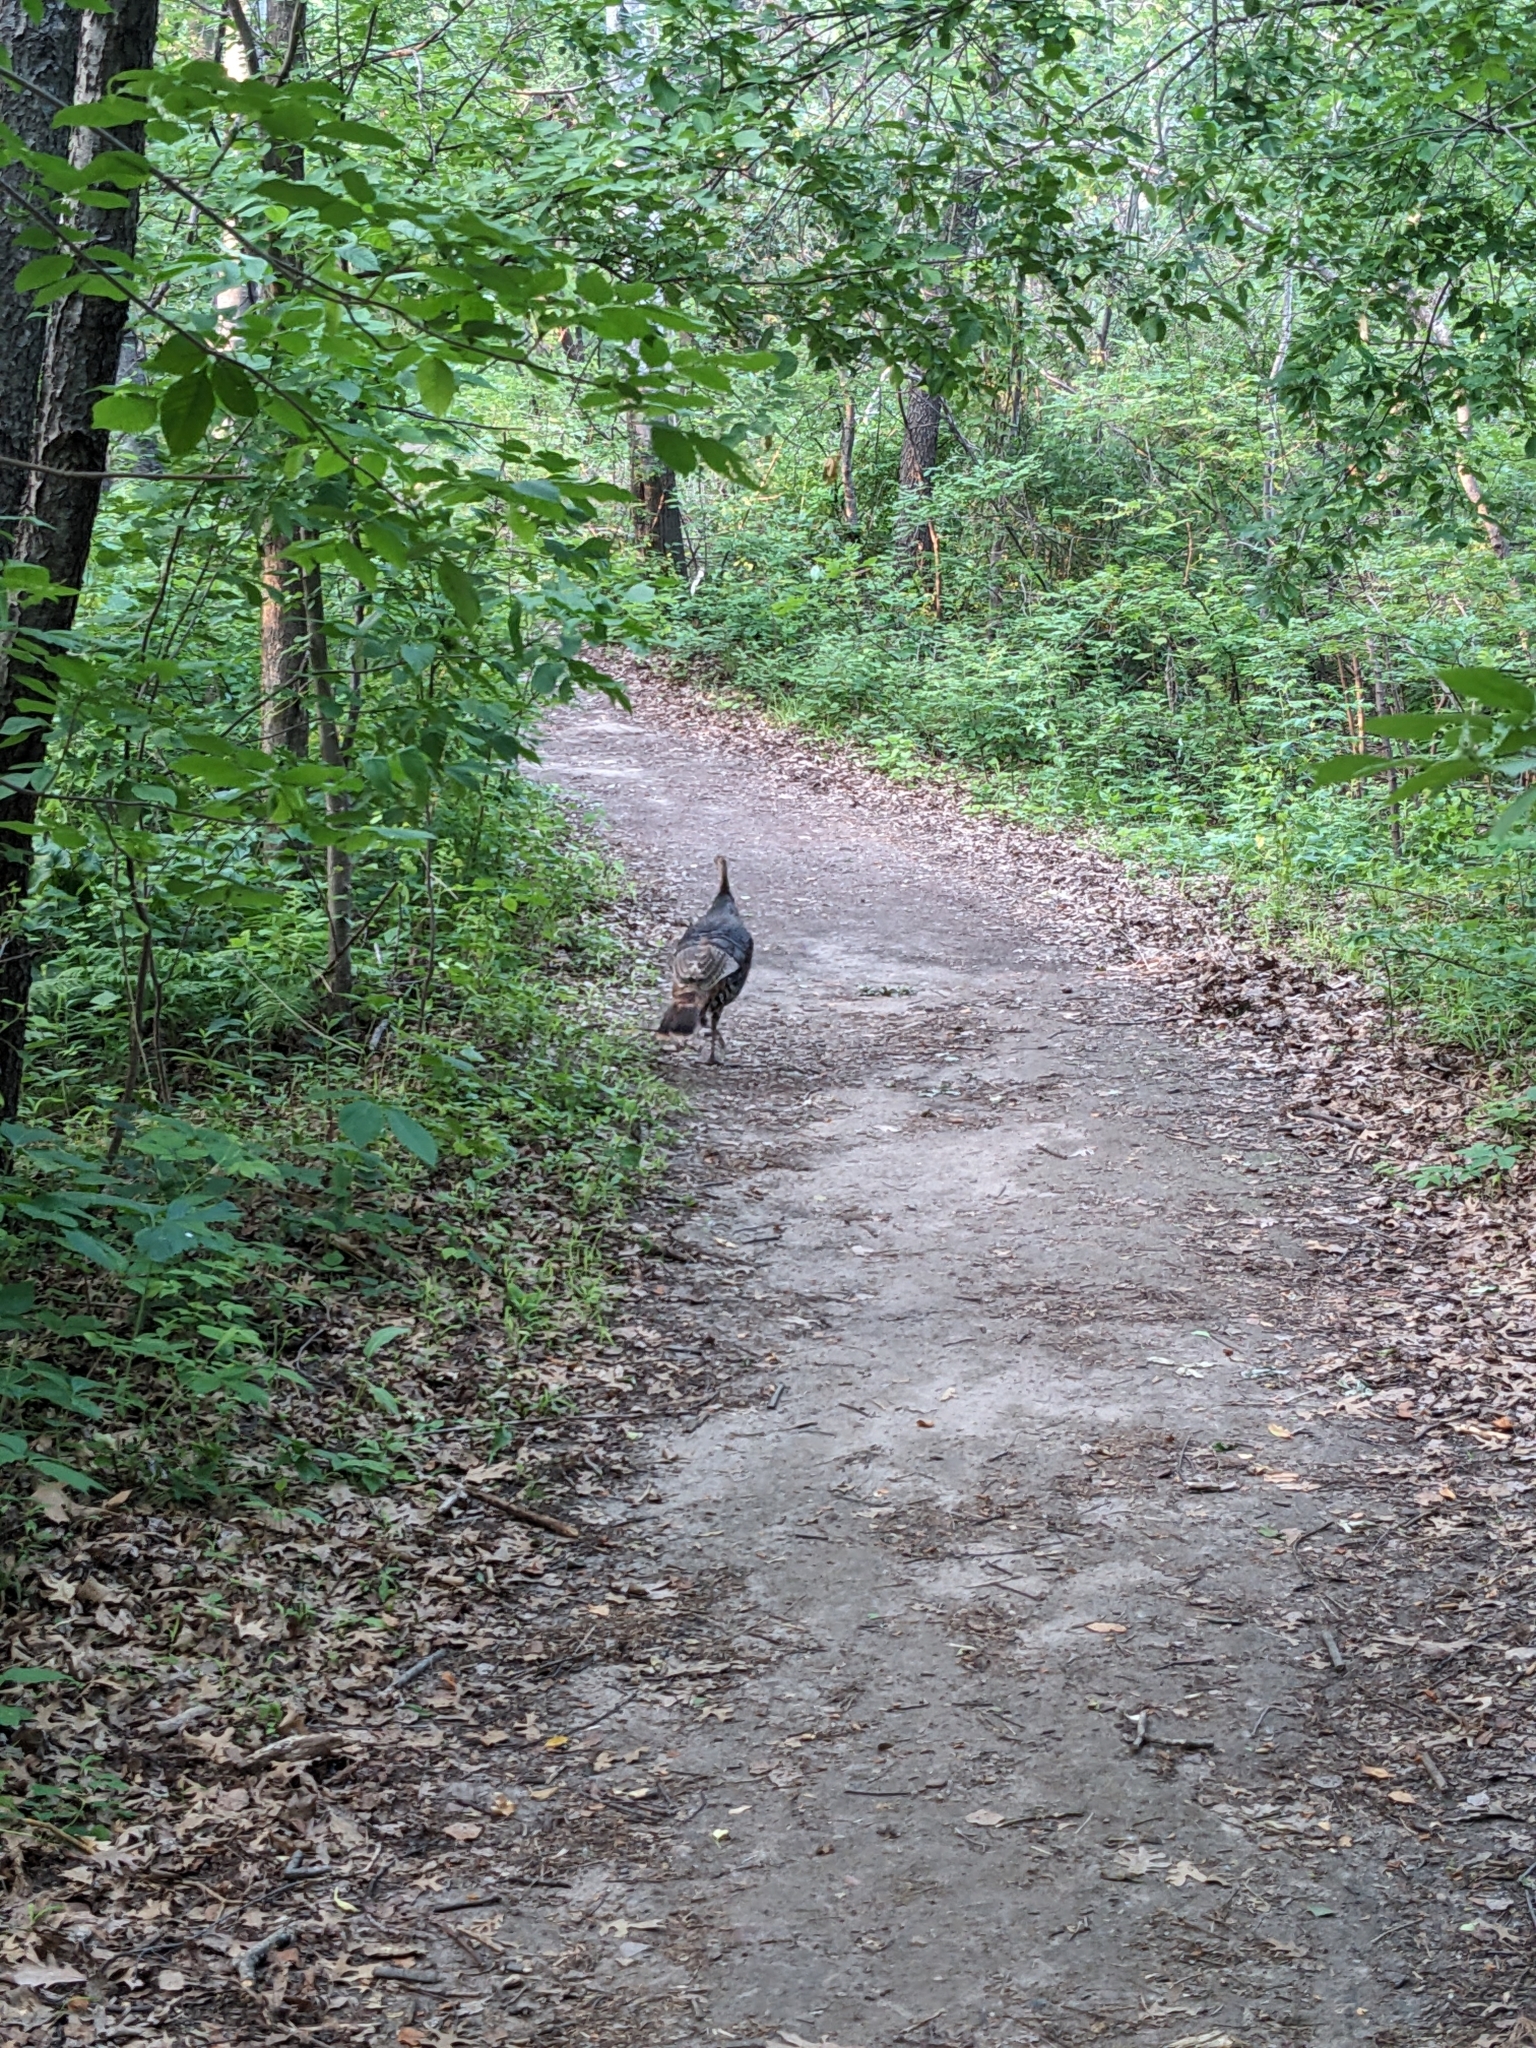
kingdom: Animalia
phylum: Chordata
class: Aves
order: Galliformes
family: Phasianidae
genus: Meleagris
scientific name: Meleagris gallopavo
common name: Wild turkey
